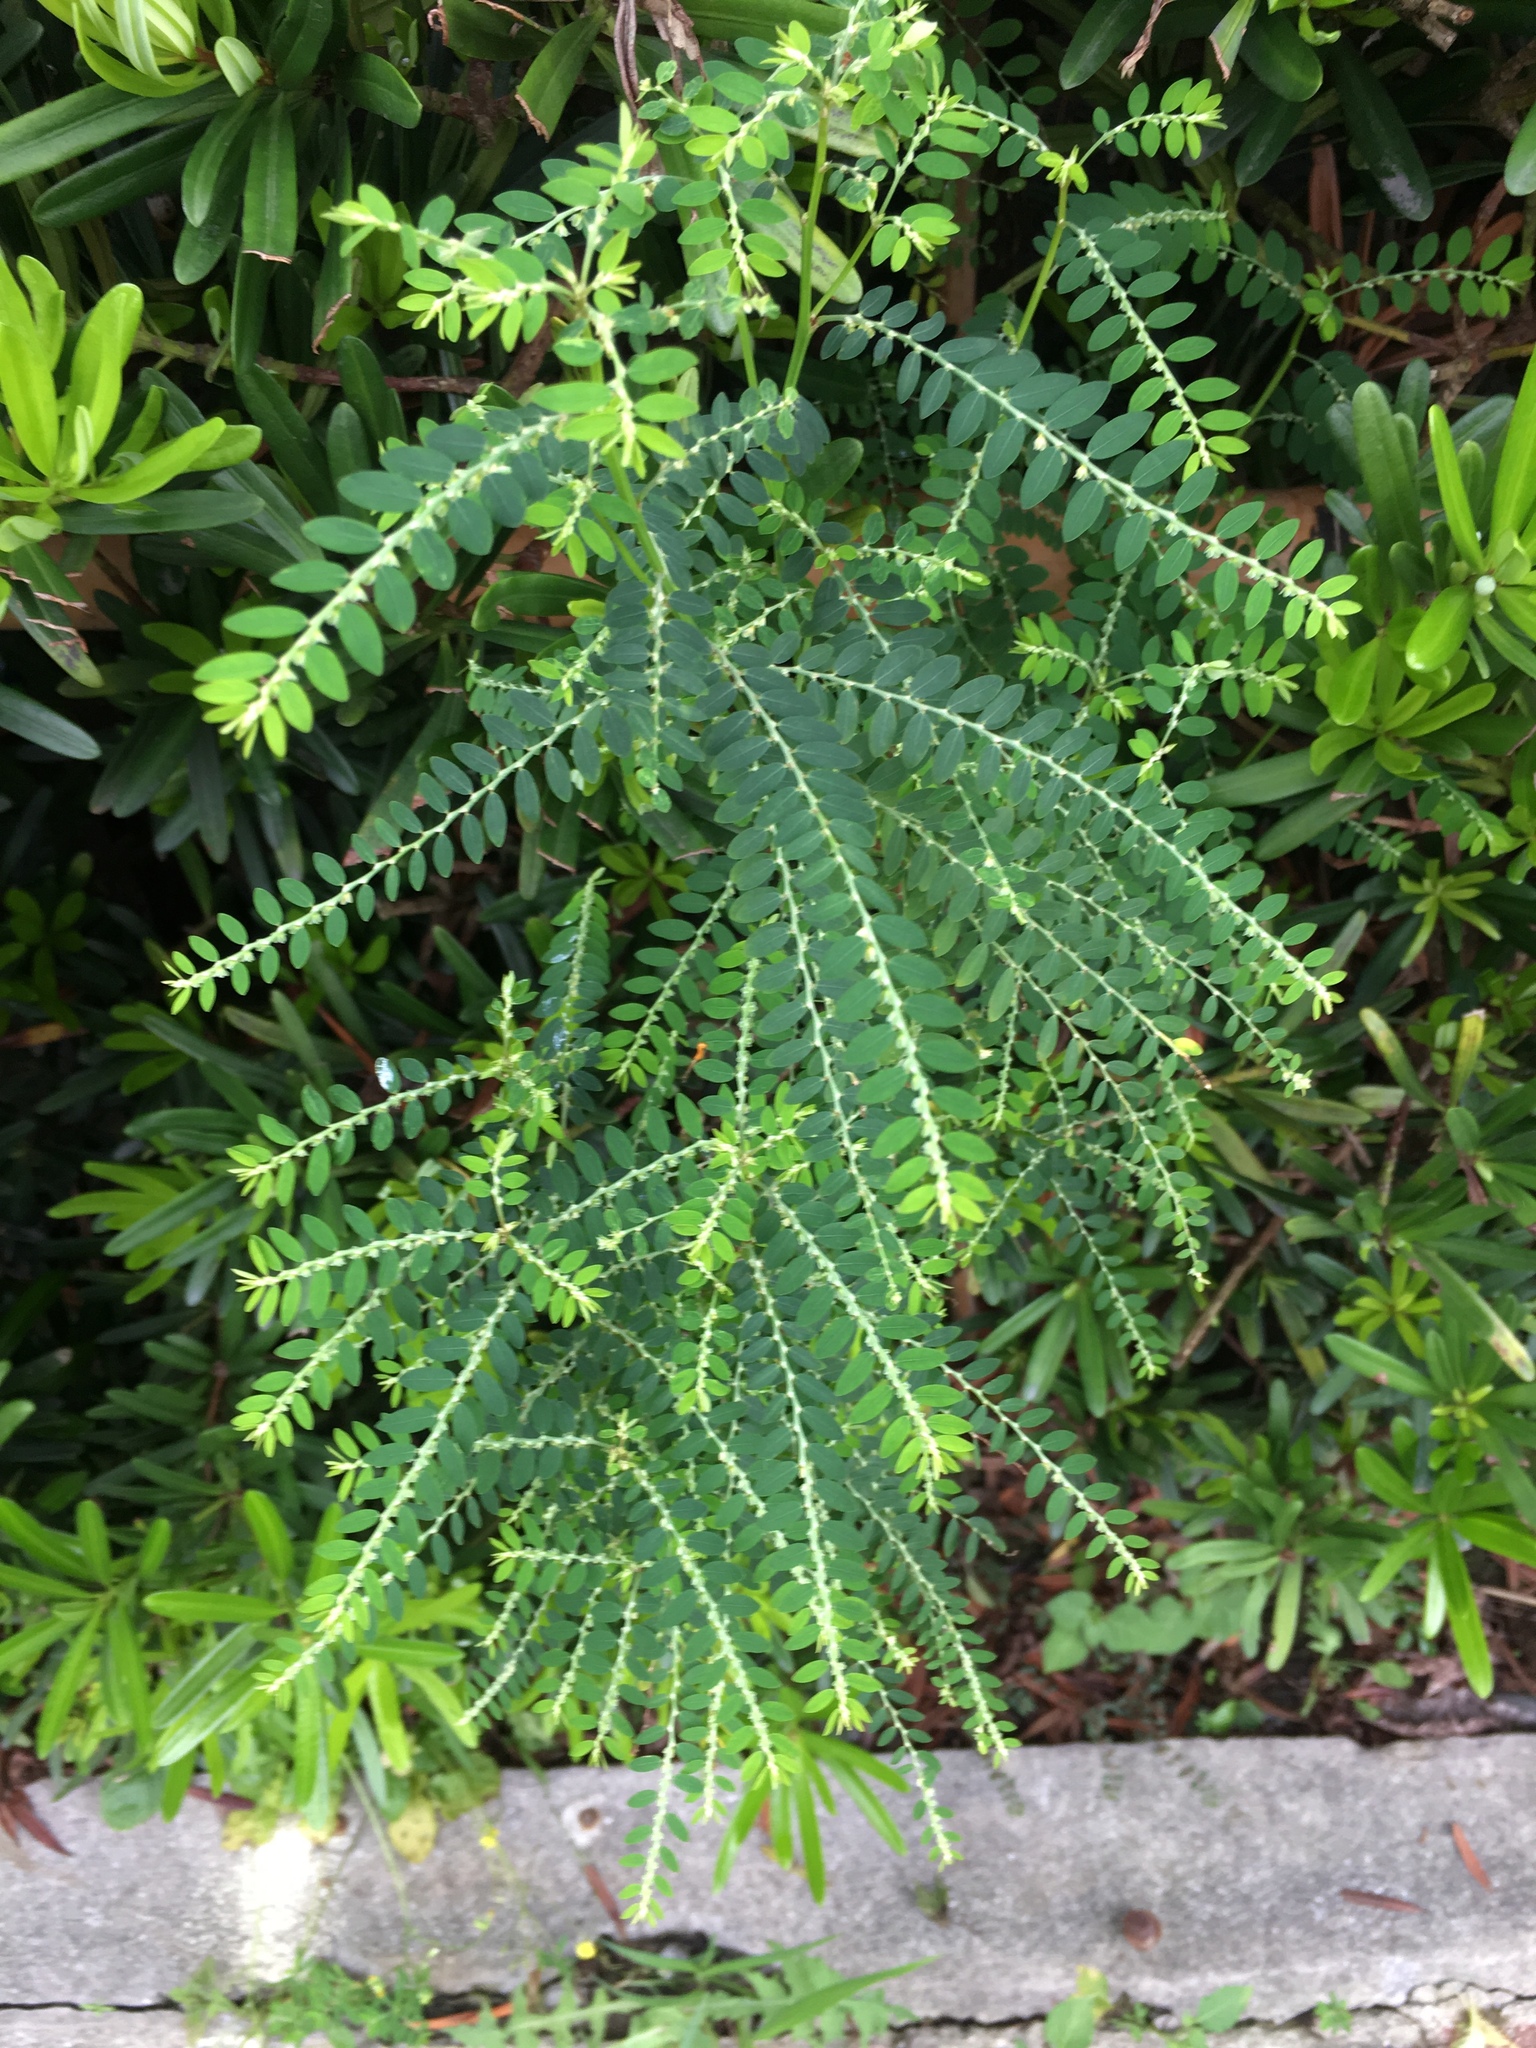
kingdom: Plantae
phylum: Tracheophyta
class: Magnoliopsida
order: Malpighiales
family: Phyllanthaceae
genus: Phyllanthus
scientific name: Phyllanthus debilis
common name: Niruri
